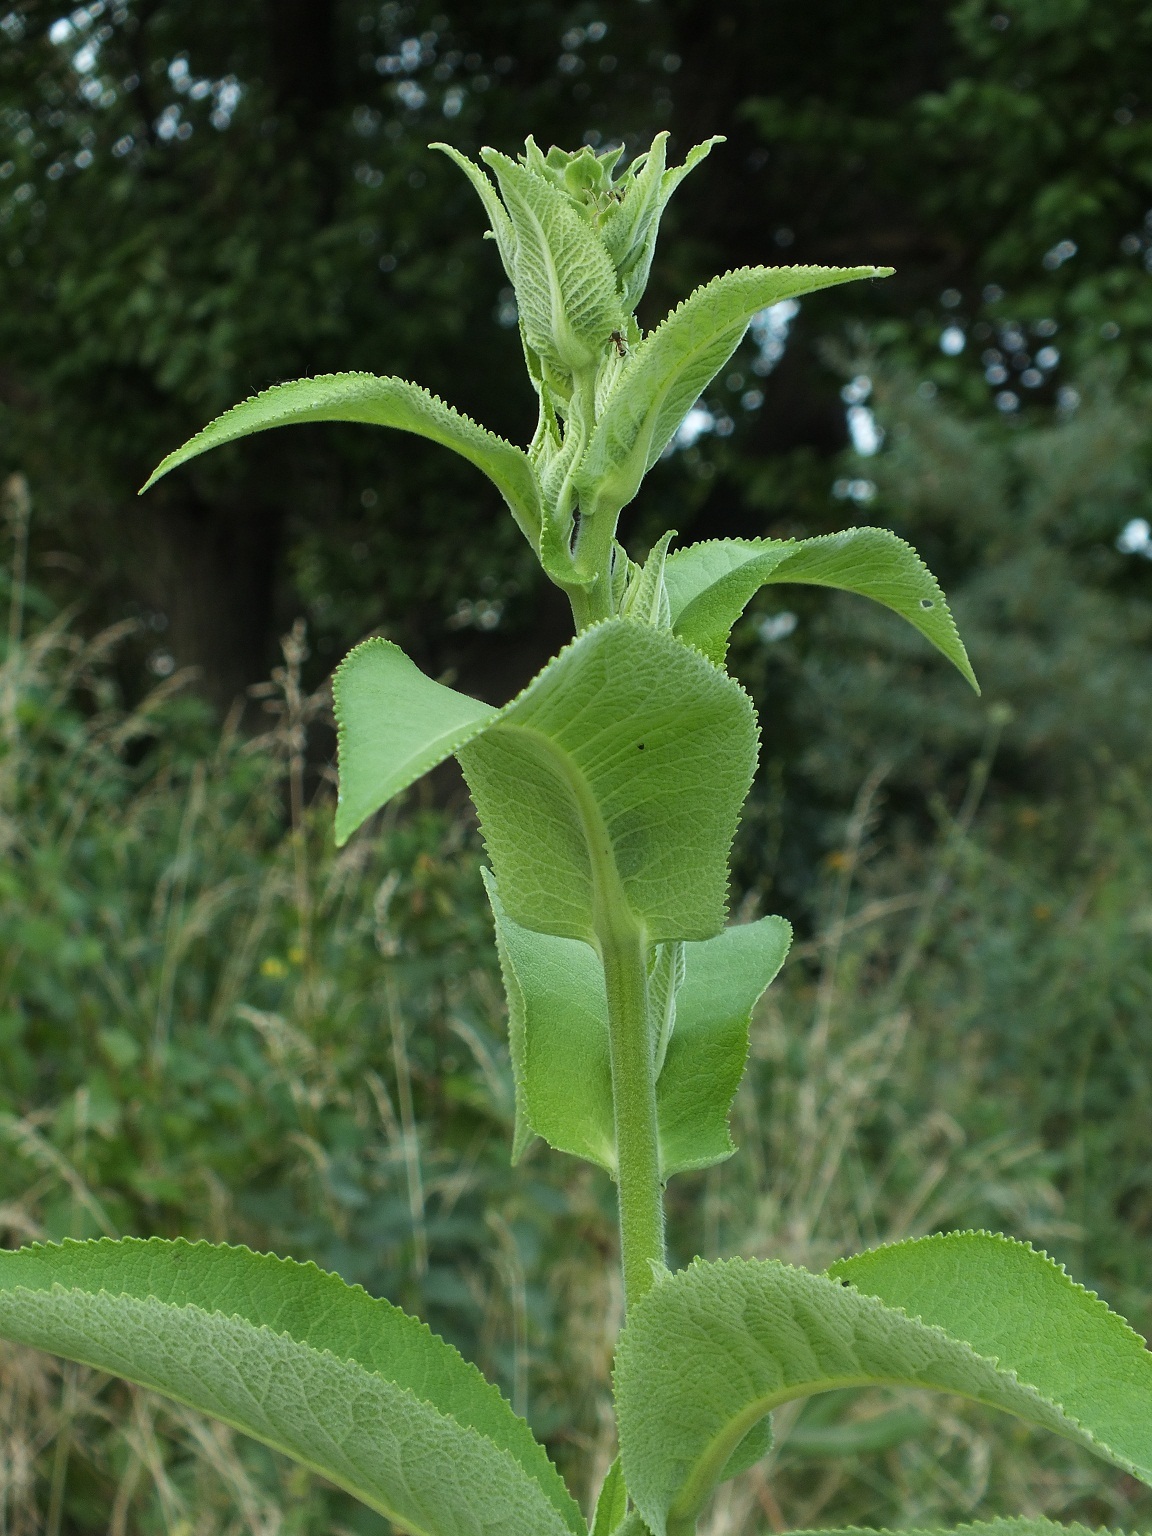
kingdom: Plantae
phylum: Tracheophyta
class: Magnoliopsida
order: Asterales
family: Asteraceae
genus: Inula
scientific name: Inula helenium
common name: Elecampane
